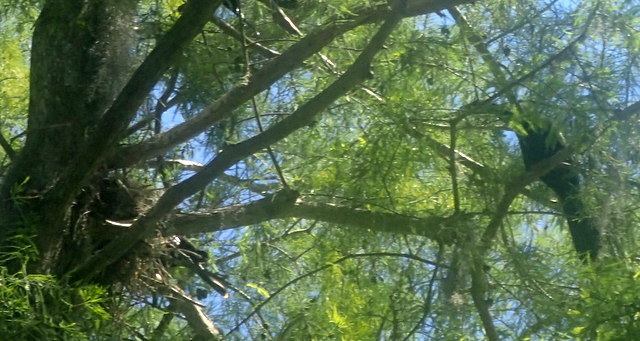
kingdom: Animalia
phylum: Chordata
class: Aves
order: Suliformes
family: Phalacrocoracidae
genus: Phalacrocorax
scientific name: Phalacrocorax auritus
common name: Double-crested cormorant
